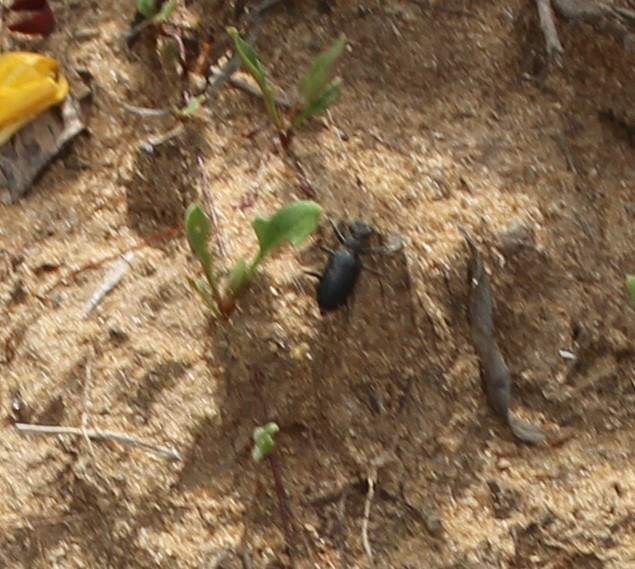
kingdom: Animalia
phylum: Arthropoda
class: Insecta
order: Coleoptera
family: Carabidae
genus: Cicindela
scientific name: Cicindela punctulata
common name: Punctured tiger beetle
